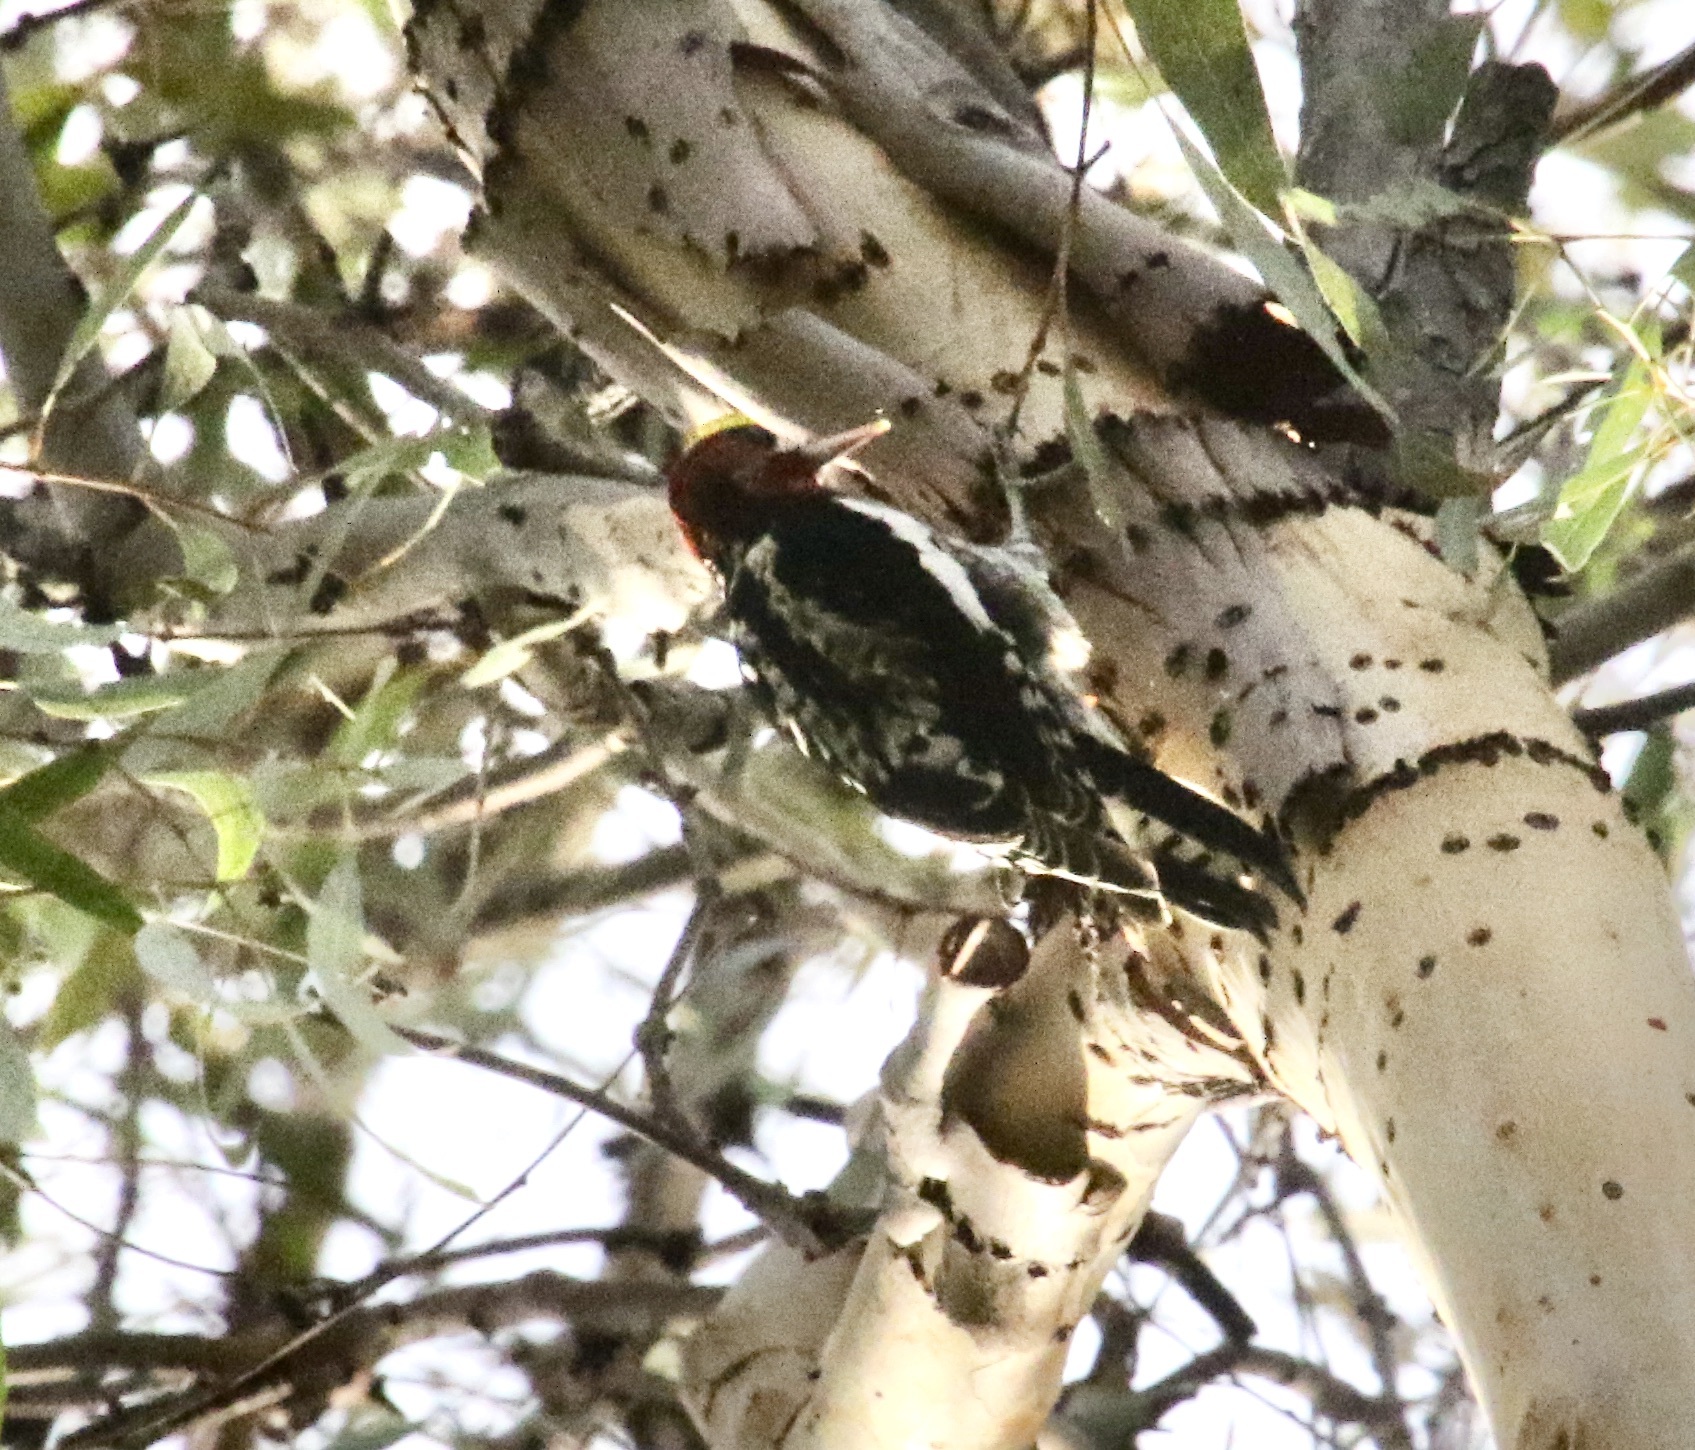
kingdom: Animalia
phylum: Chordata
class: Aves
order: Piciformes
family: Picidae
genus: Sphyrapicus
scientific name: Sphyrapicus ruber
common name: Red-breasted sapsucker
